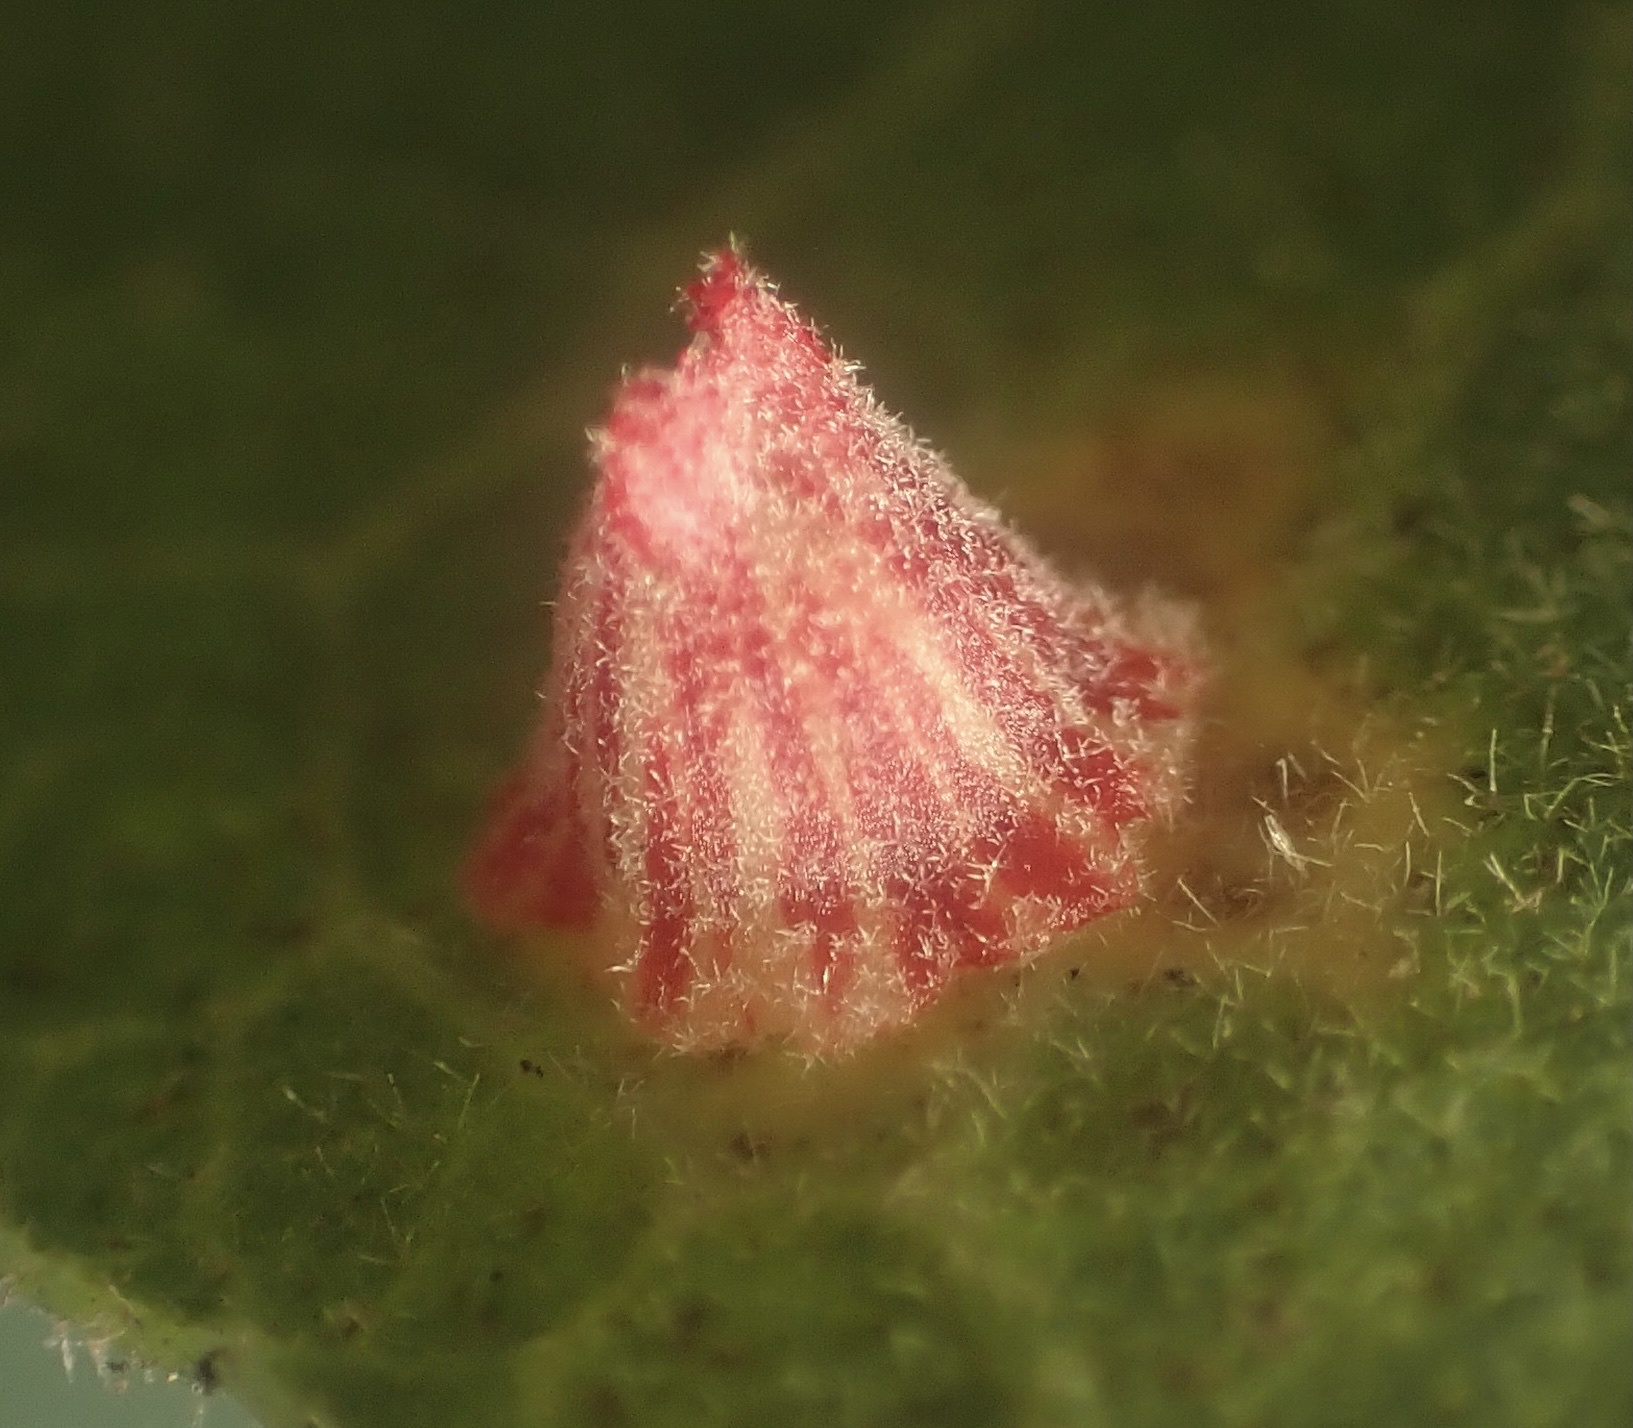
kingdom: Animalia
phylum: Arthropoda
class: Insecta
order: Hymenoptera
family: Cynipidae
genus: Andricus
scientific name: Andricus
